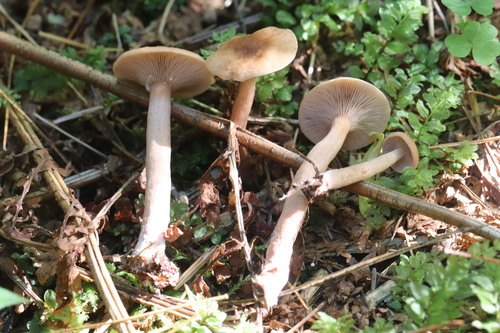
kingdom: Fungi
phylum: Basidiomycota
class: Agaricomycetes
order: Russulales
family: Russulaceae
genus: Lactarius
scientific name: Lactarius
